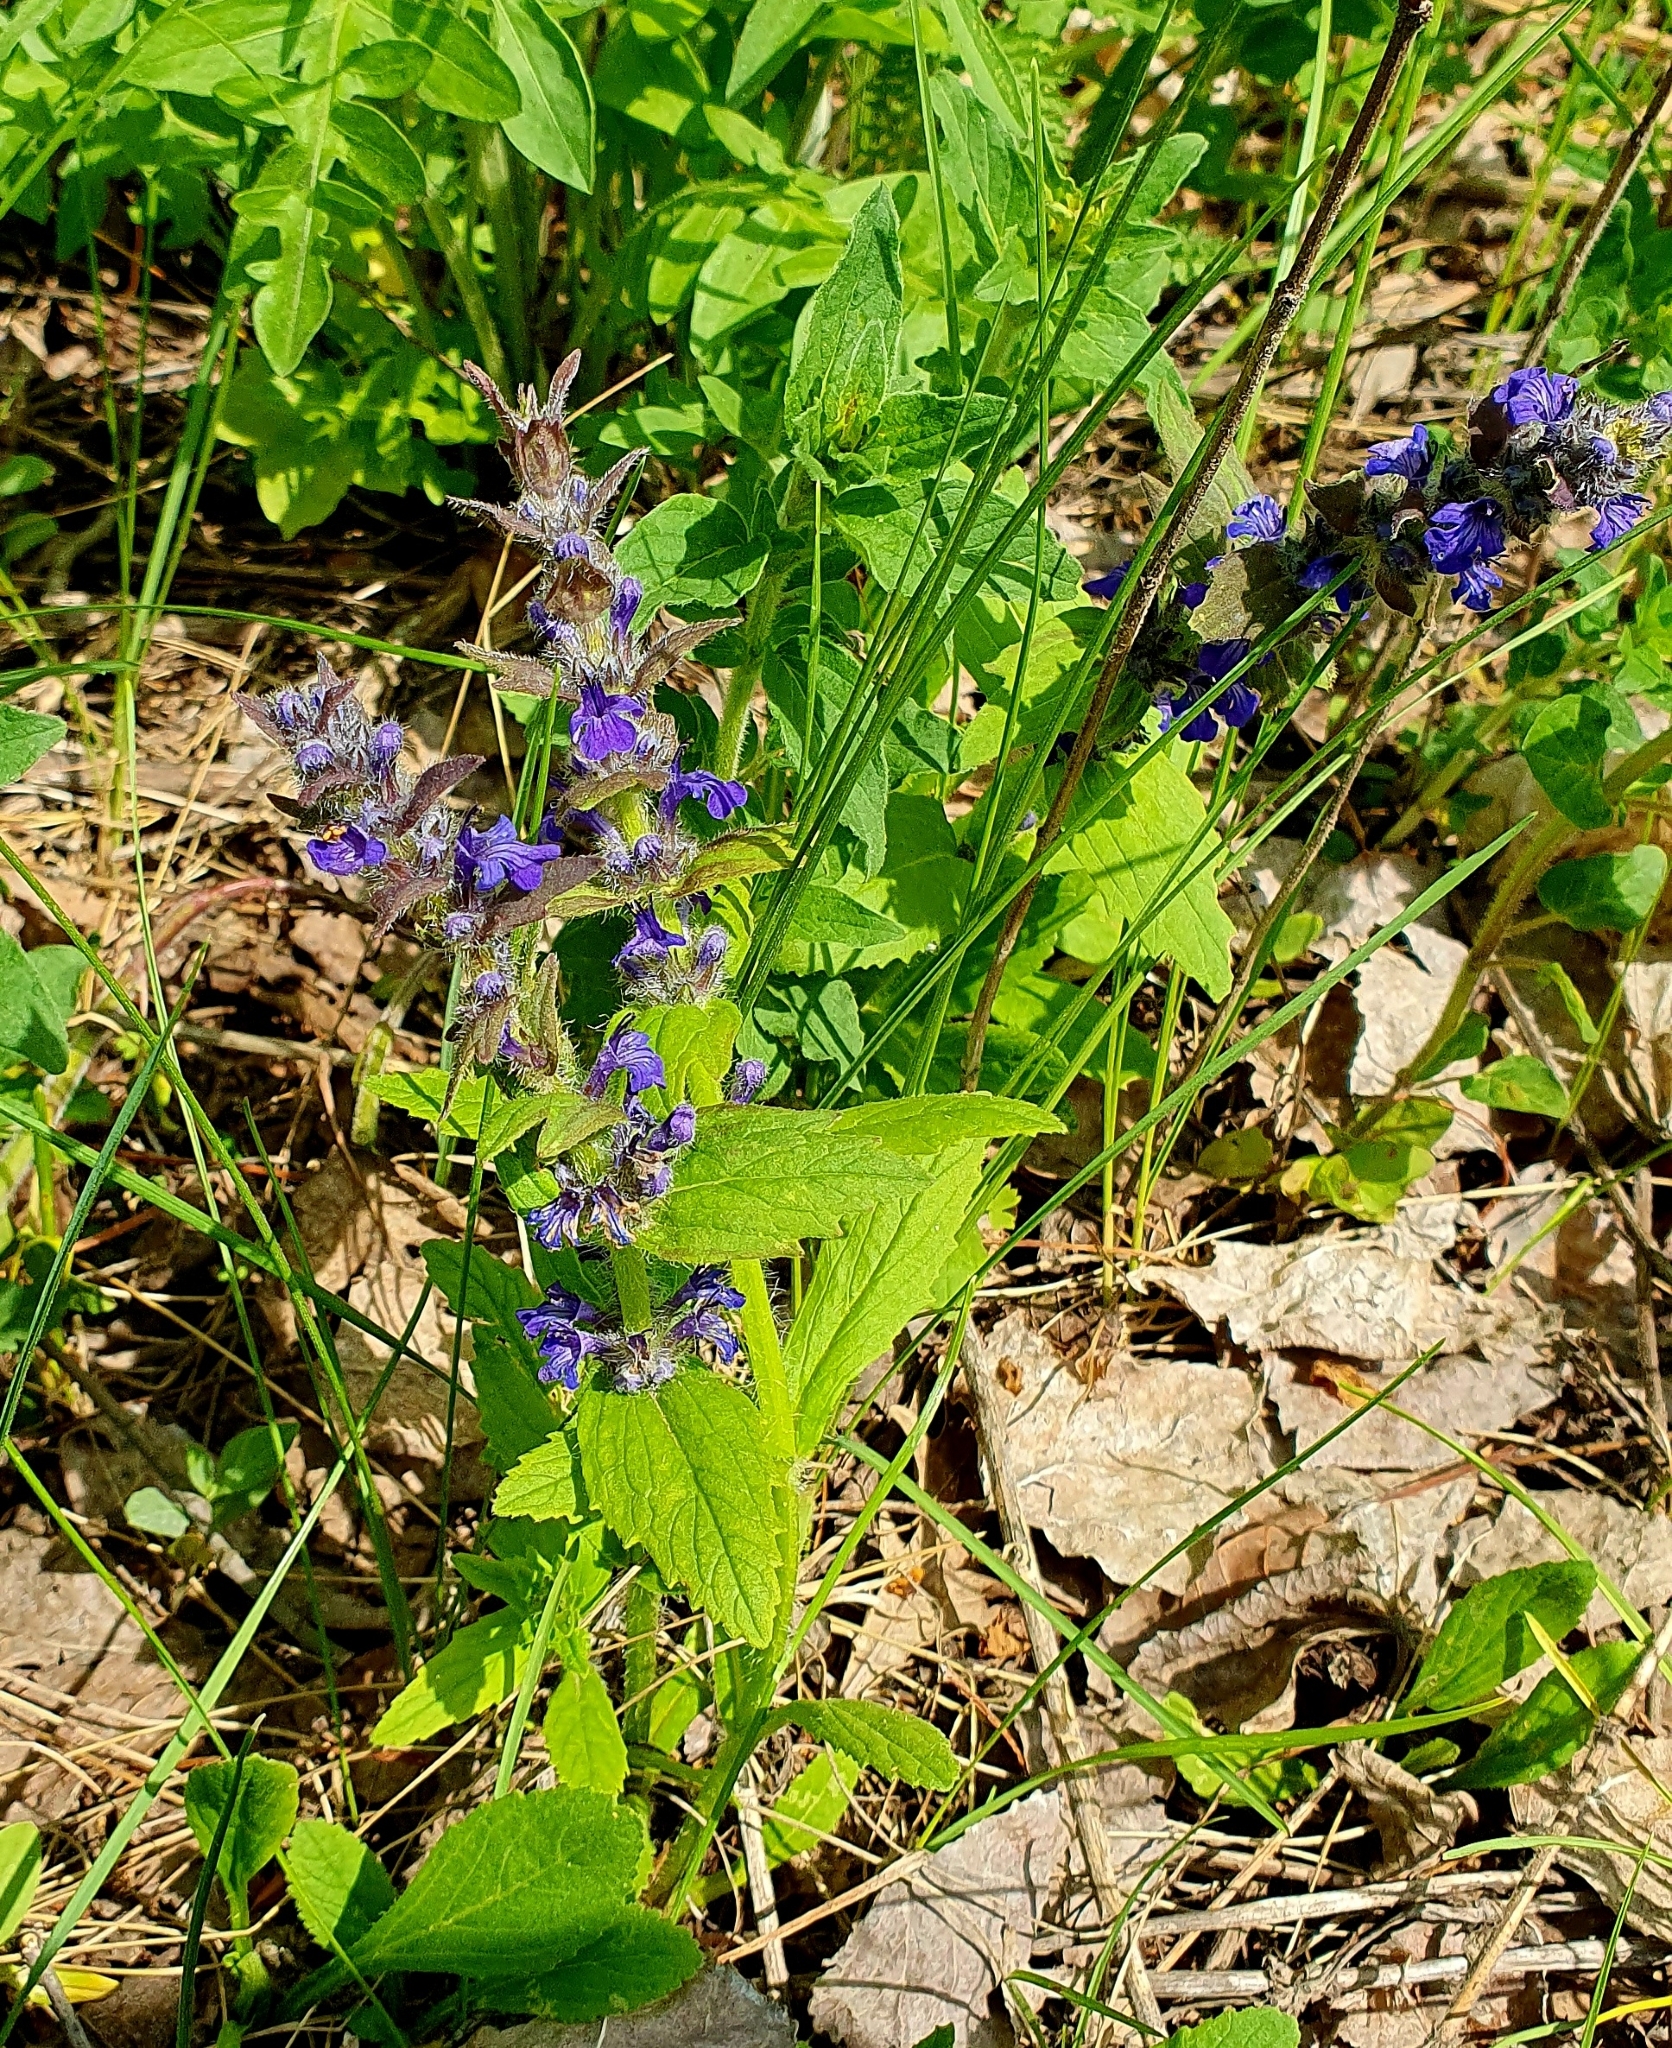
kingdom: Plantae
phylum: Tracheophyta
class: Magnoliopsida
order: Lamiales
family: Lamiaceae
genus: Ajuga
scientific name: Ajuga genevensis
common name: Blue bugle
